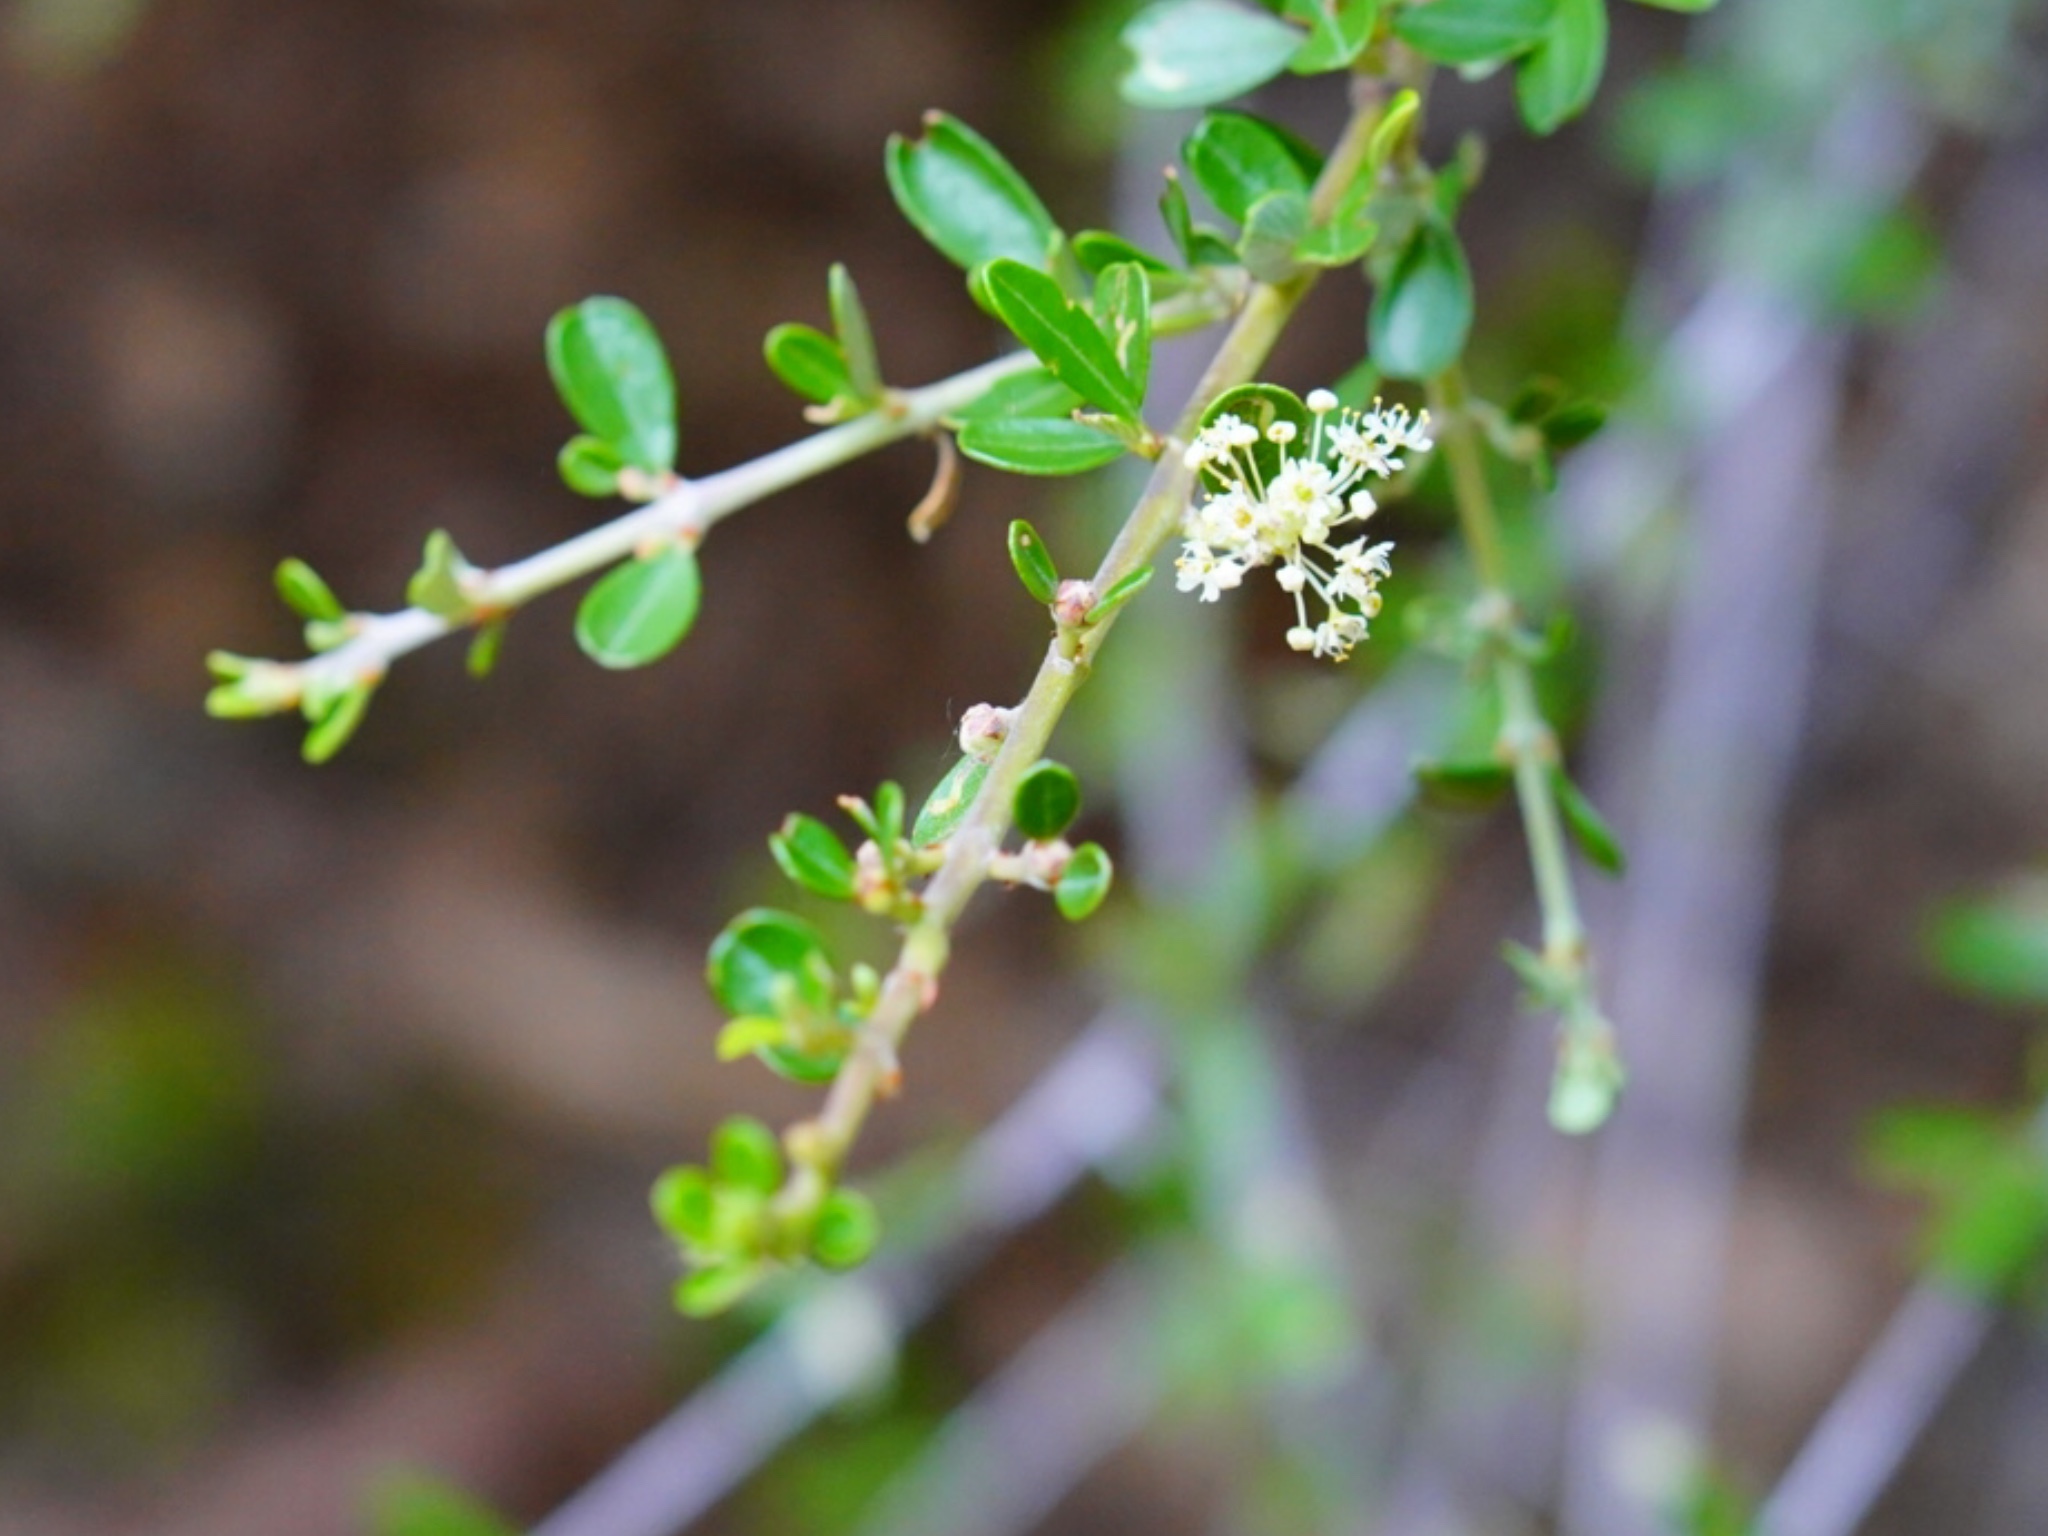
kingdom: Plantae
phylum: Tracheophyta
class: Magnoliopsida
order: Rosales
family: Rhamnaceae
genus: Ceanothus
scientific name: Ceanothus cuneatus
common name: Cuneate ceanothus
